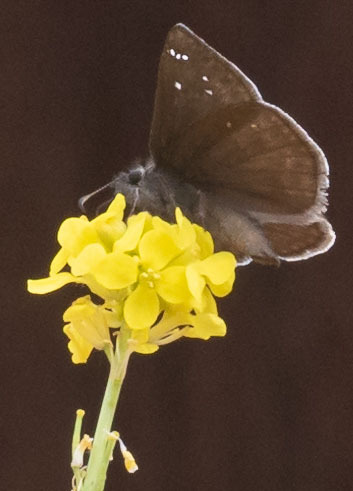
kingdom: Animalia
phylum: Arthropoda
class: Insecta
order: Lepidoptera
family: Hesperiidae
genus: Erynnis
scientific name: Erynnis propertius
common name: Propertius duskywing
